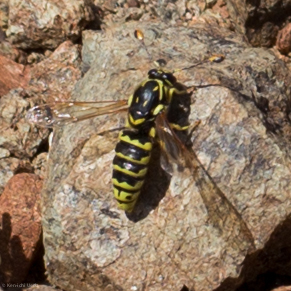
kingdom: Animalia
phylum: Arthropoda
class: Insecta
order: Hymenoptera
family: Masaridae
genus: Pseudomasaris
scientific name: Pseudomasaris wheeleri
